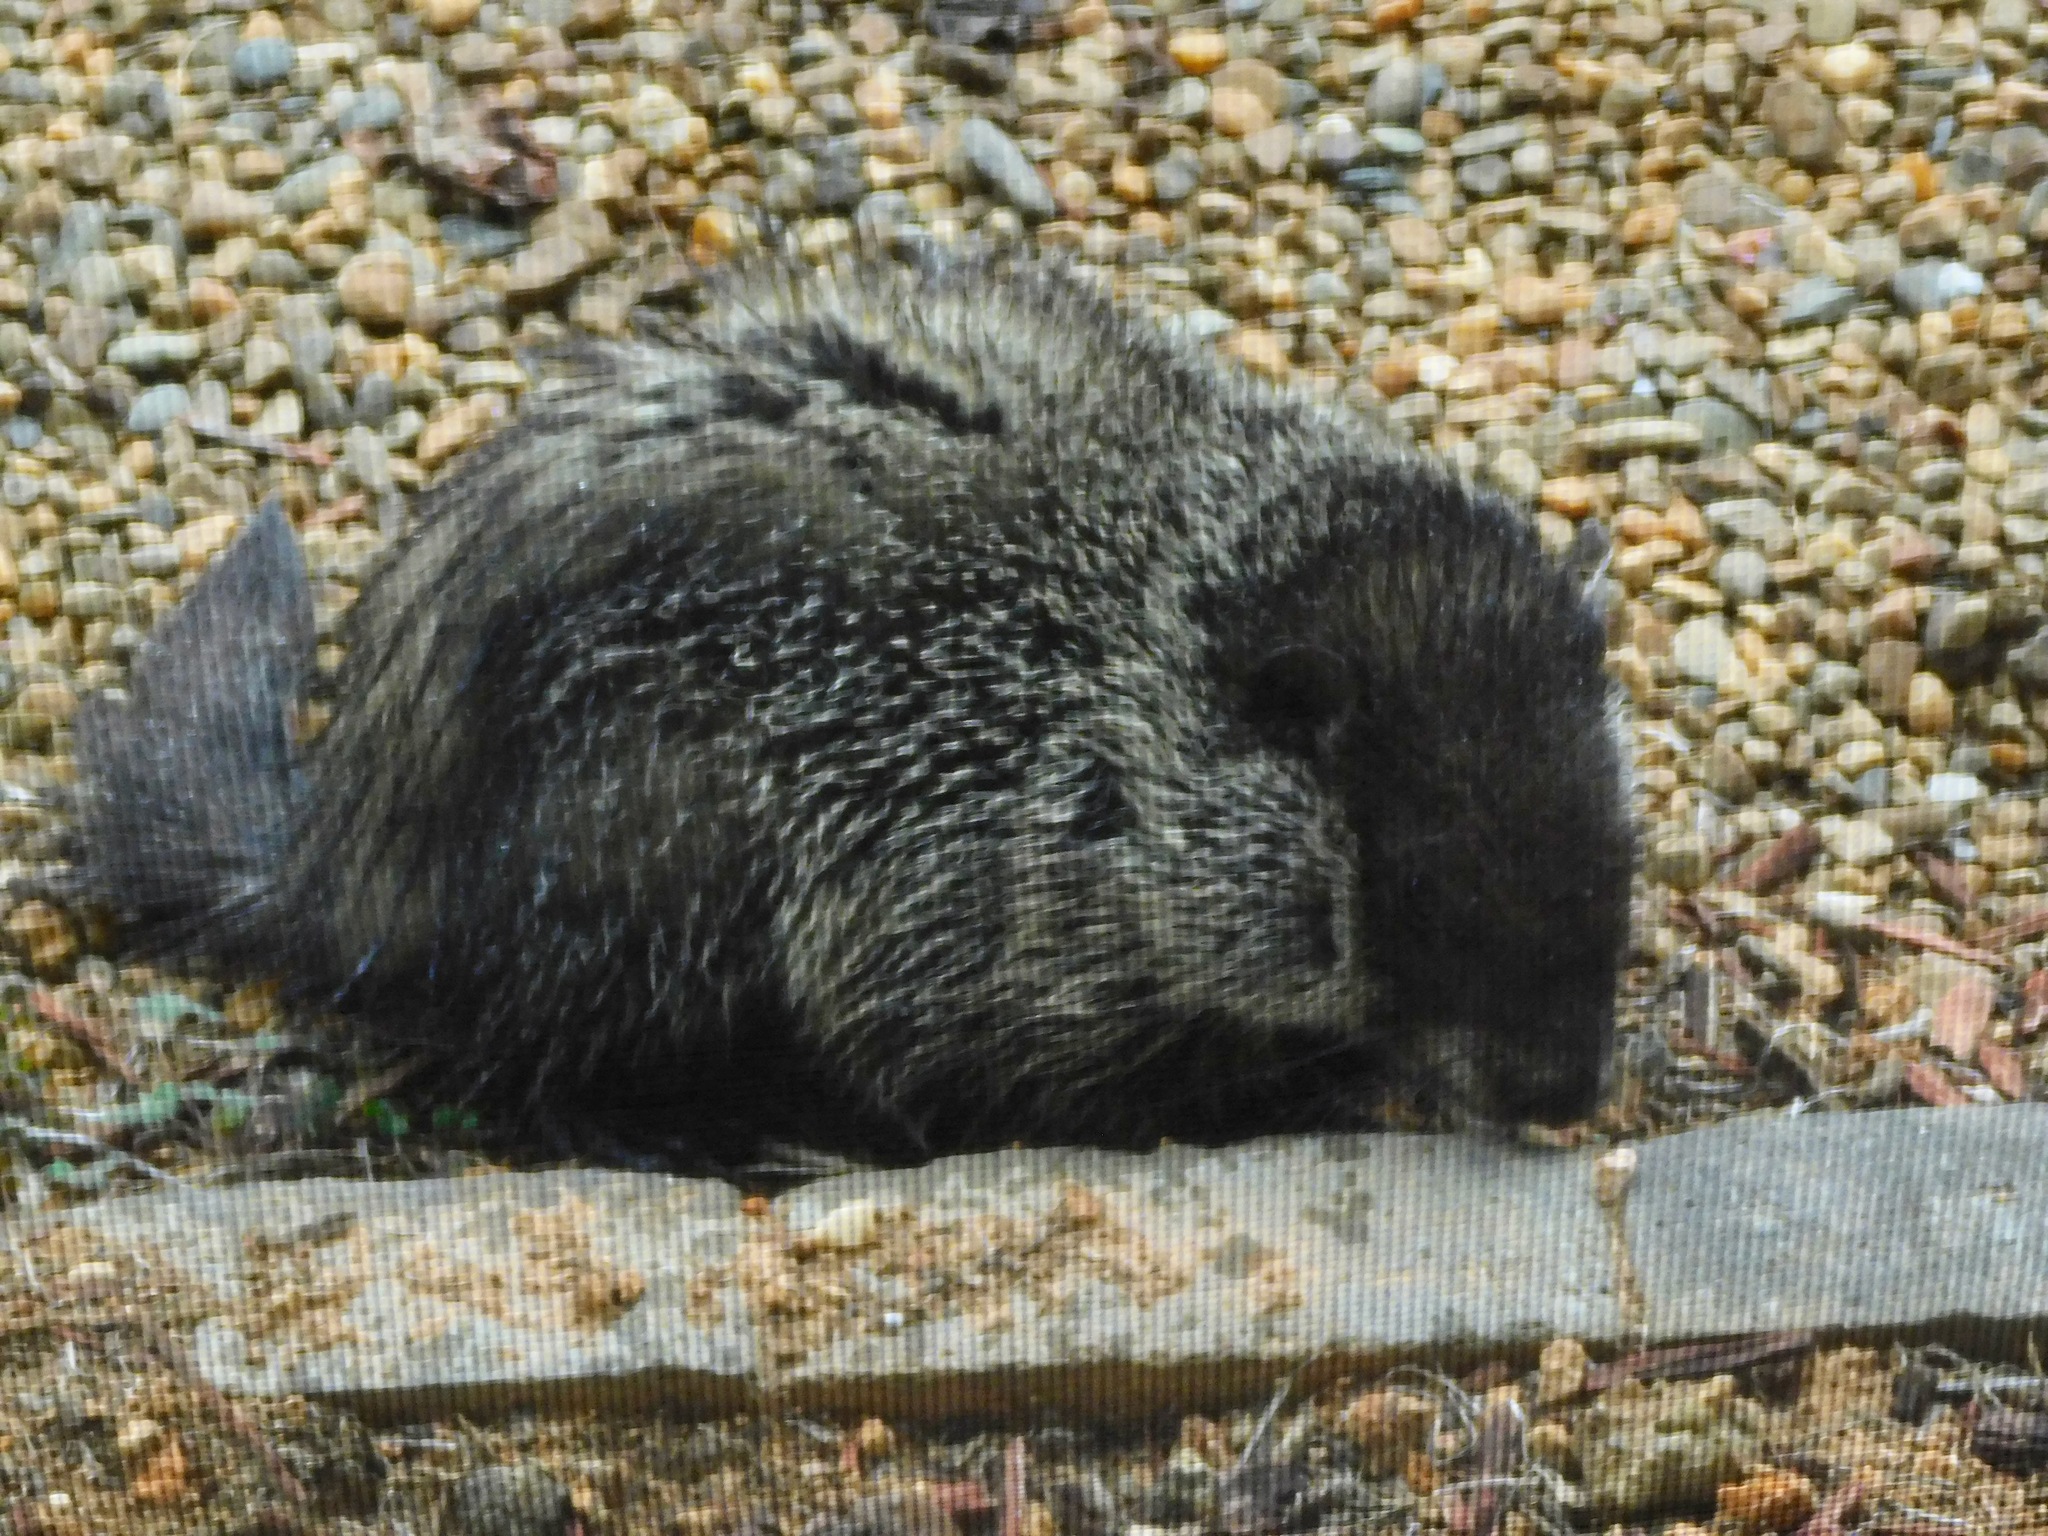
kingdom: Animalia
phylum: Chordata
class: Mammalia
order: Rodentia
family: Sciuridae
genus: Marmota
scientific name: Marmota monax
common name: Groundhog
